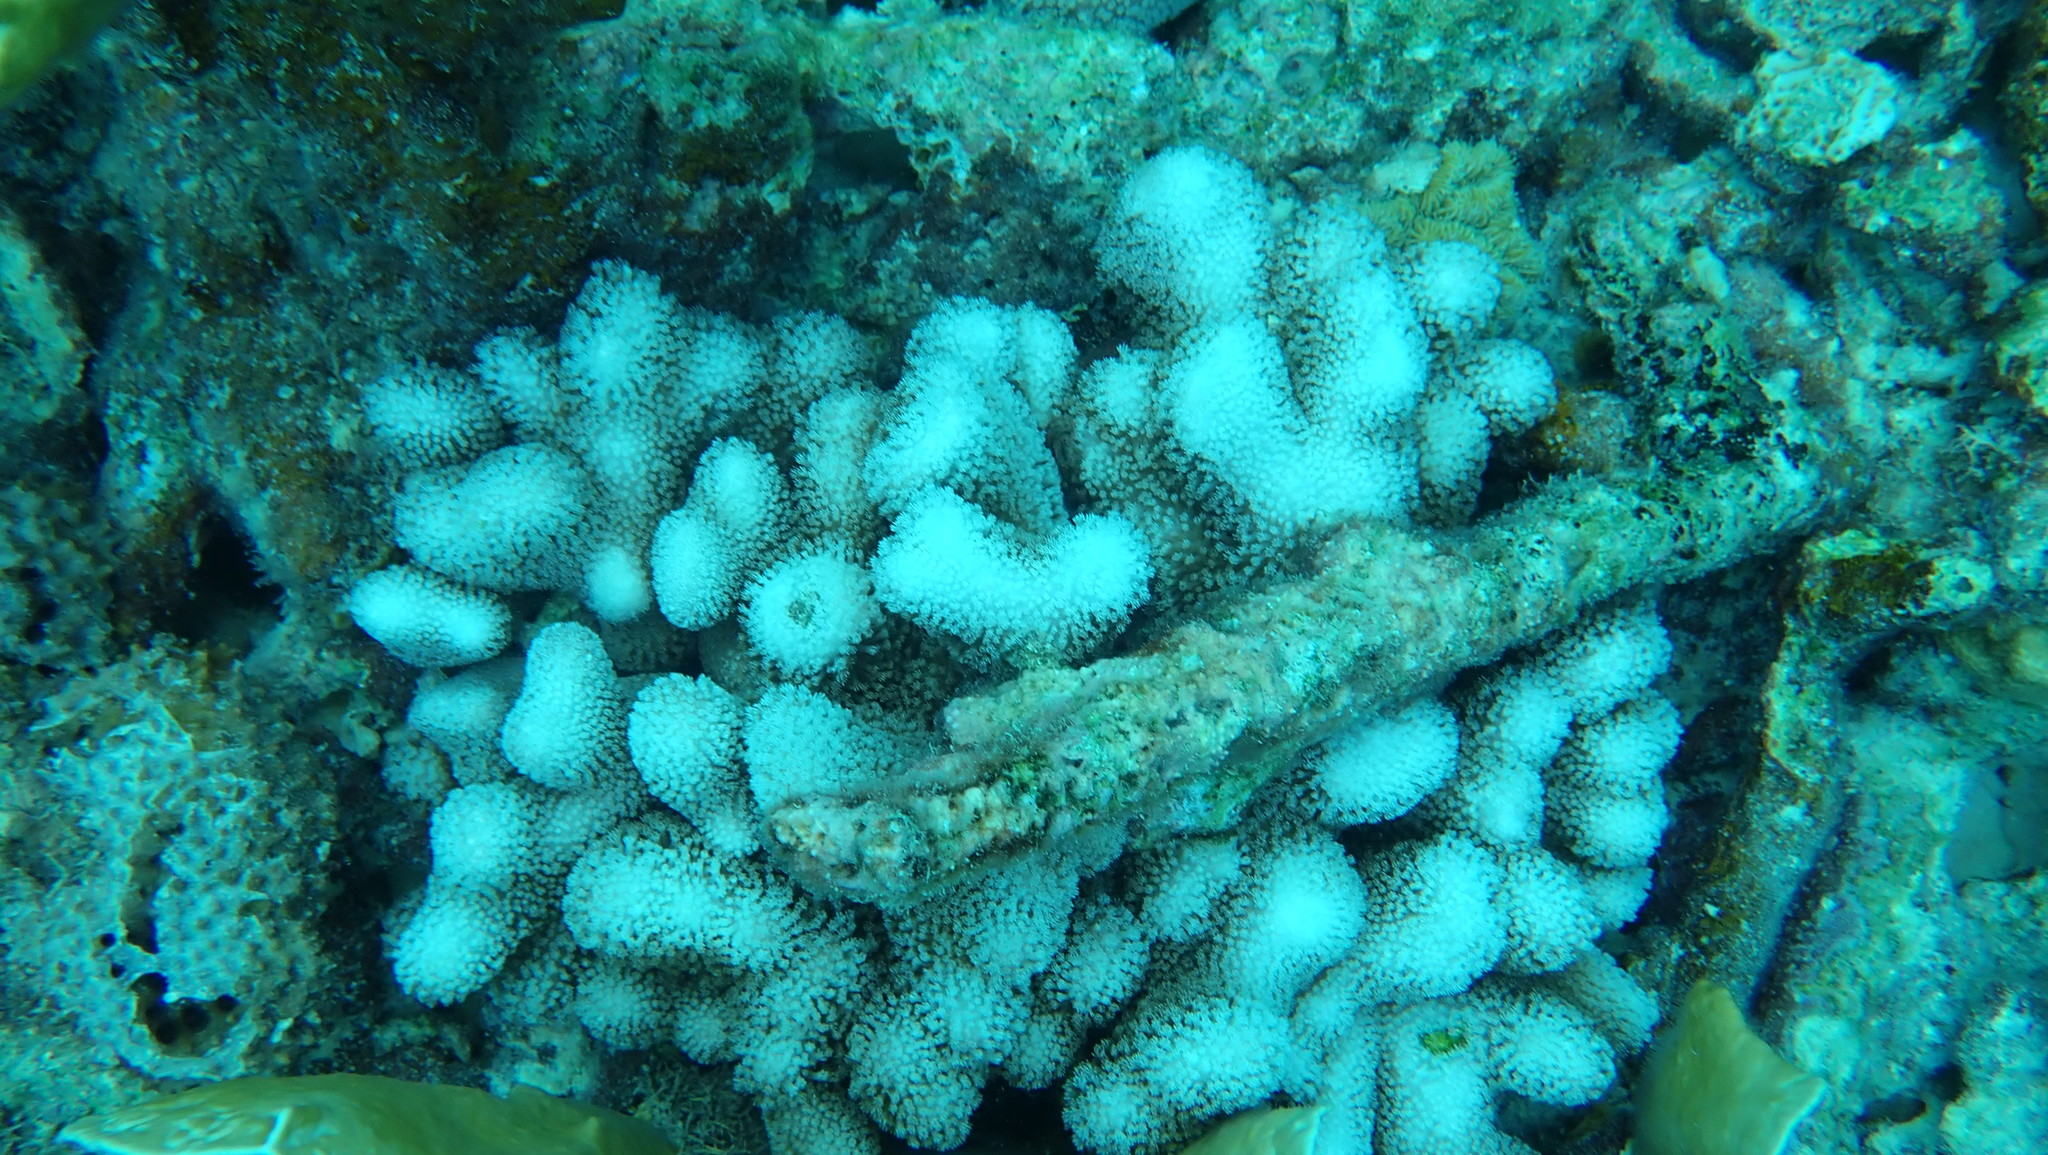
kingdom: Animalia
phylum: Cnidaria
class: Anthozoa
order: Scleractinia
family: Poritidae
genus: Porites
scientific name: Porites porites
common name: Finger coral
